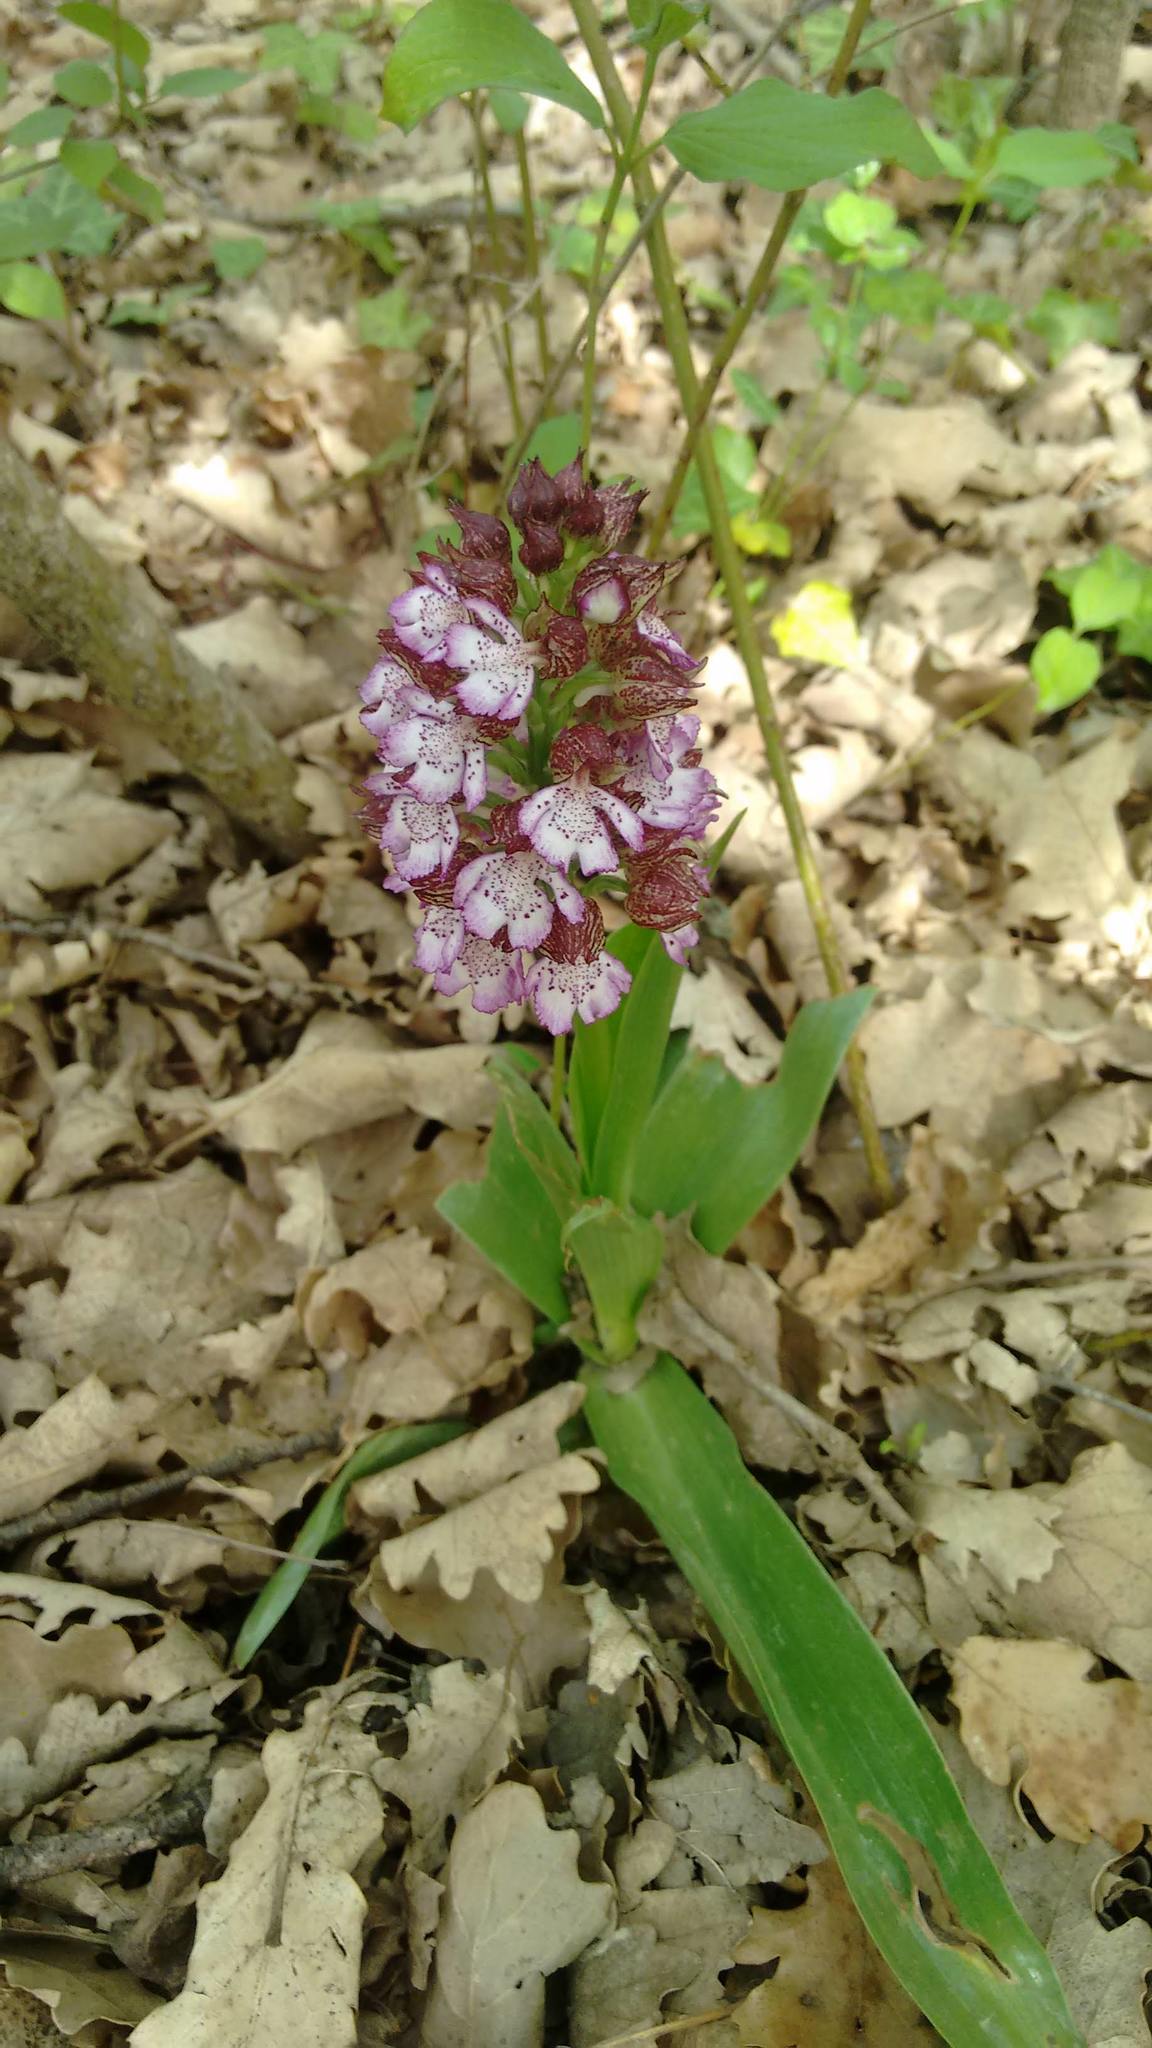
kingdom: Plantae
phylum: Tracheophyta
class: Liliopsida
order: Asparagales
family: Orchidaceae
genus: Orchis
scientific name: Orchis purpurea
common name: Lady orchid
